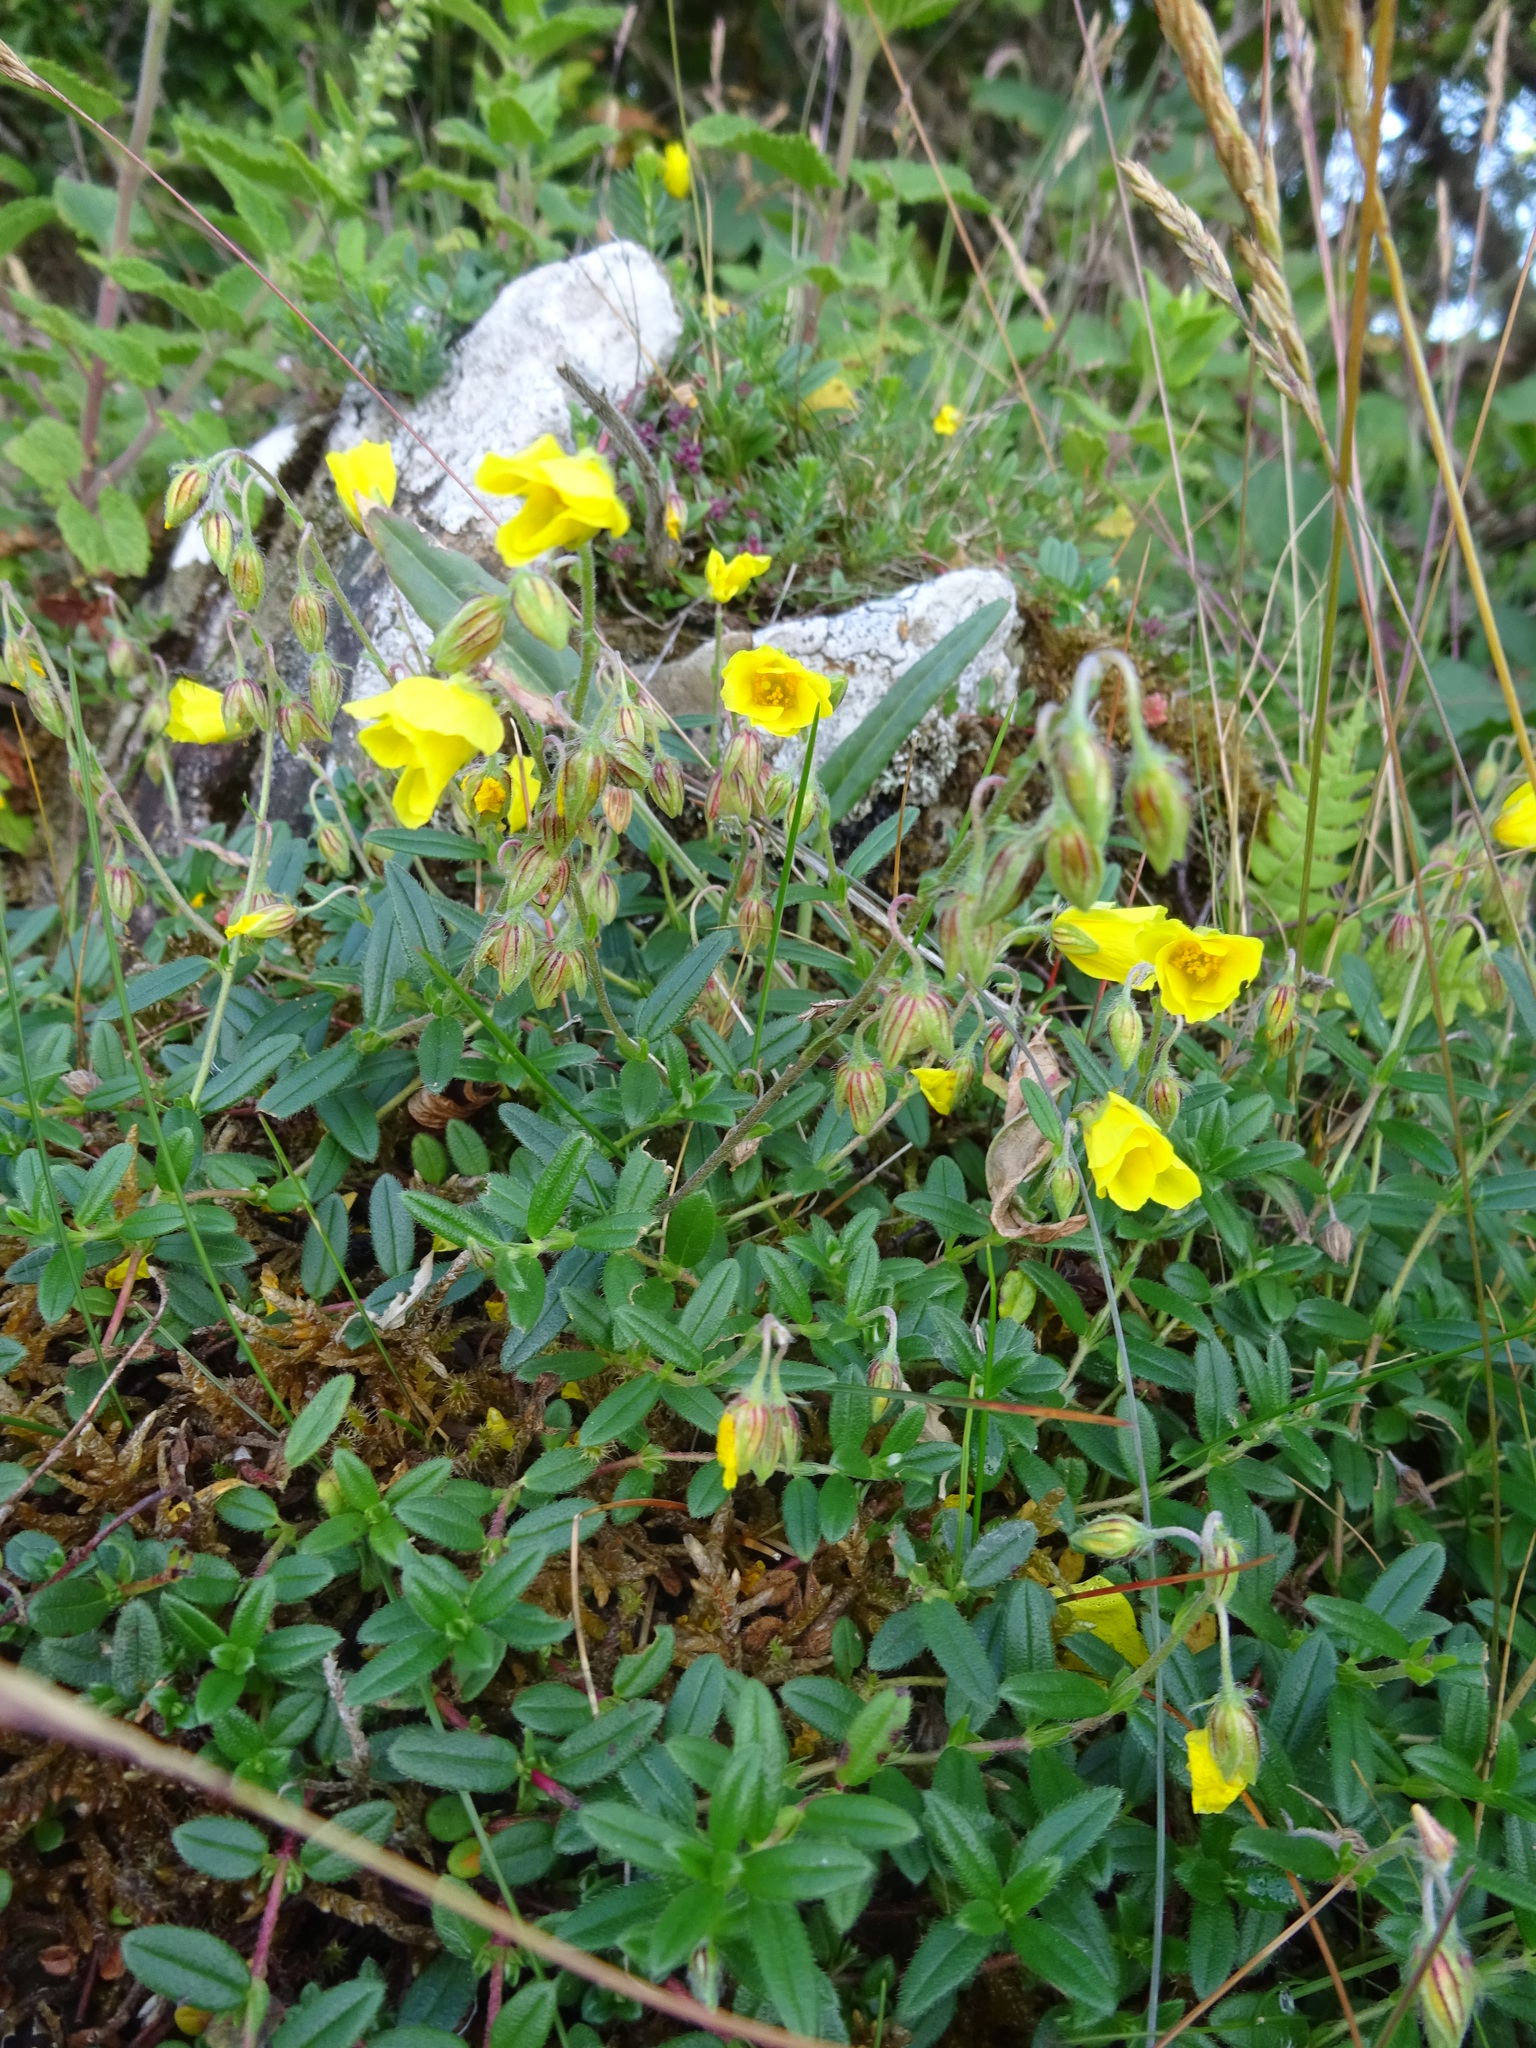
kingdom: Plantae
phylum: Tracheophyta
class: Magnoliopsida
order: Malvales
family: Cistaceae
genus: Helianthemum
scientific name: Helianthemum nummularium
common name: Common rock-rose
